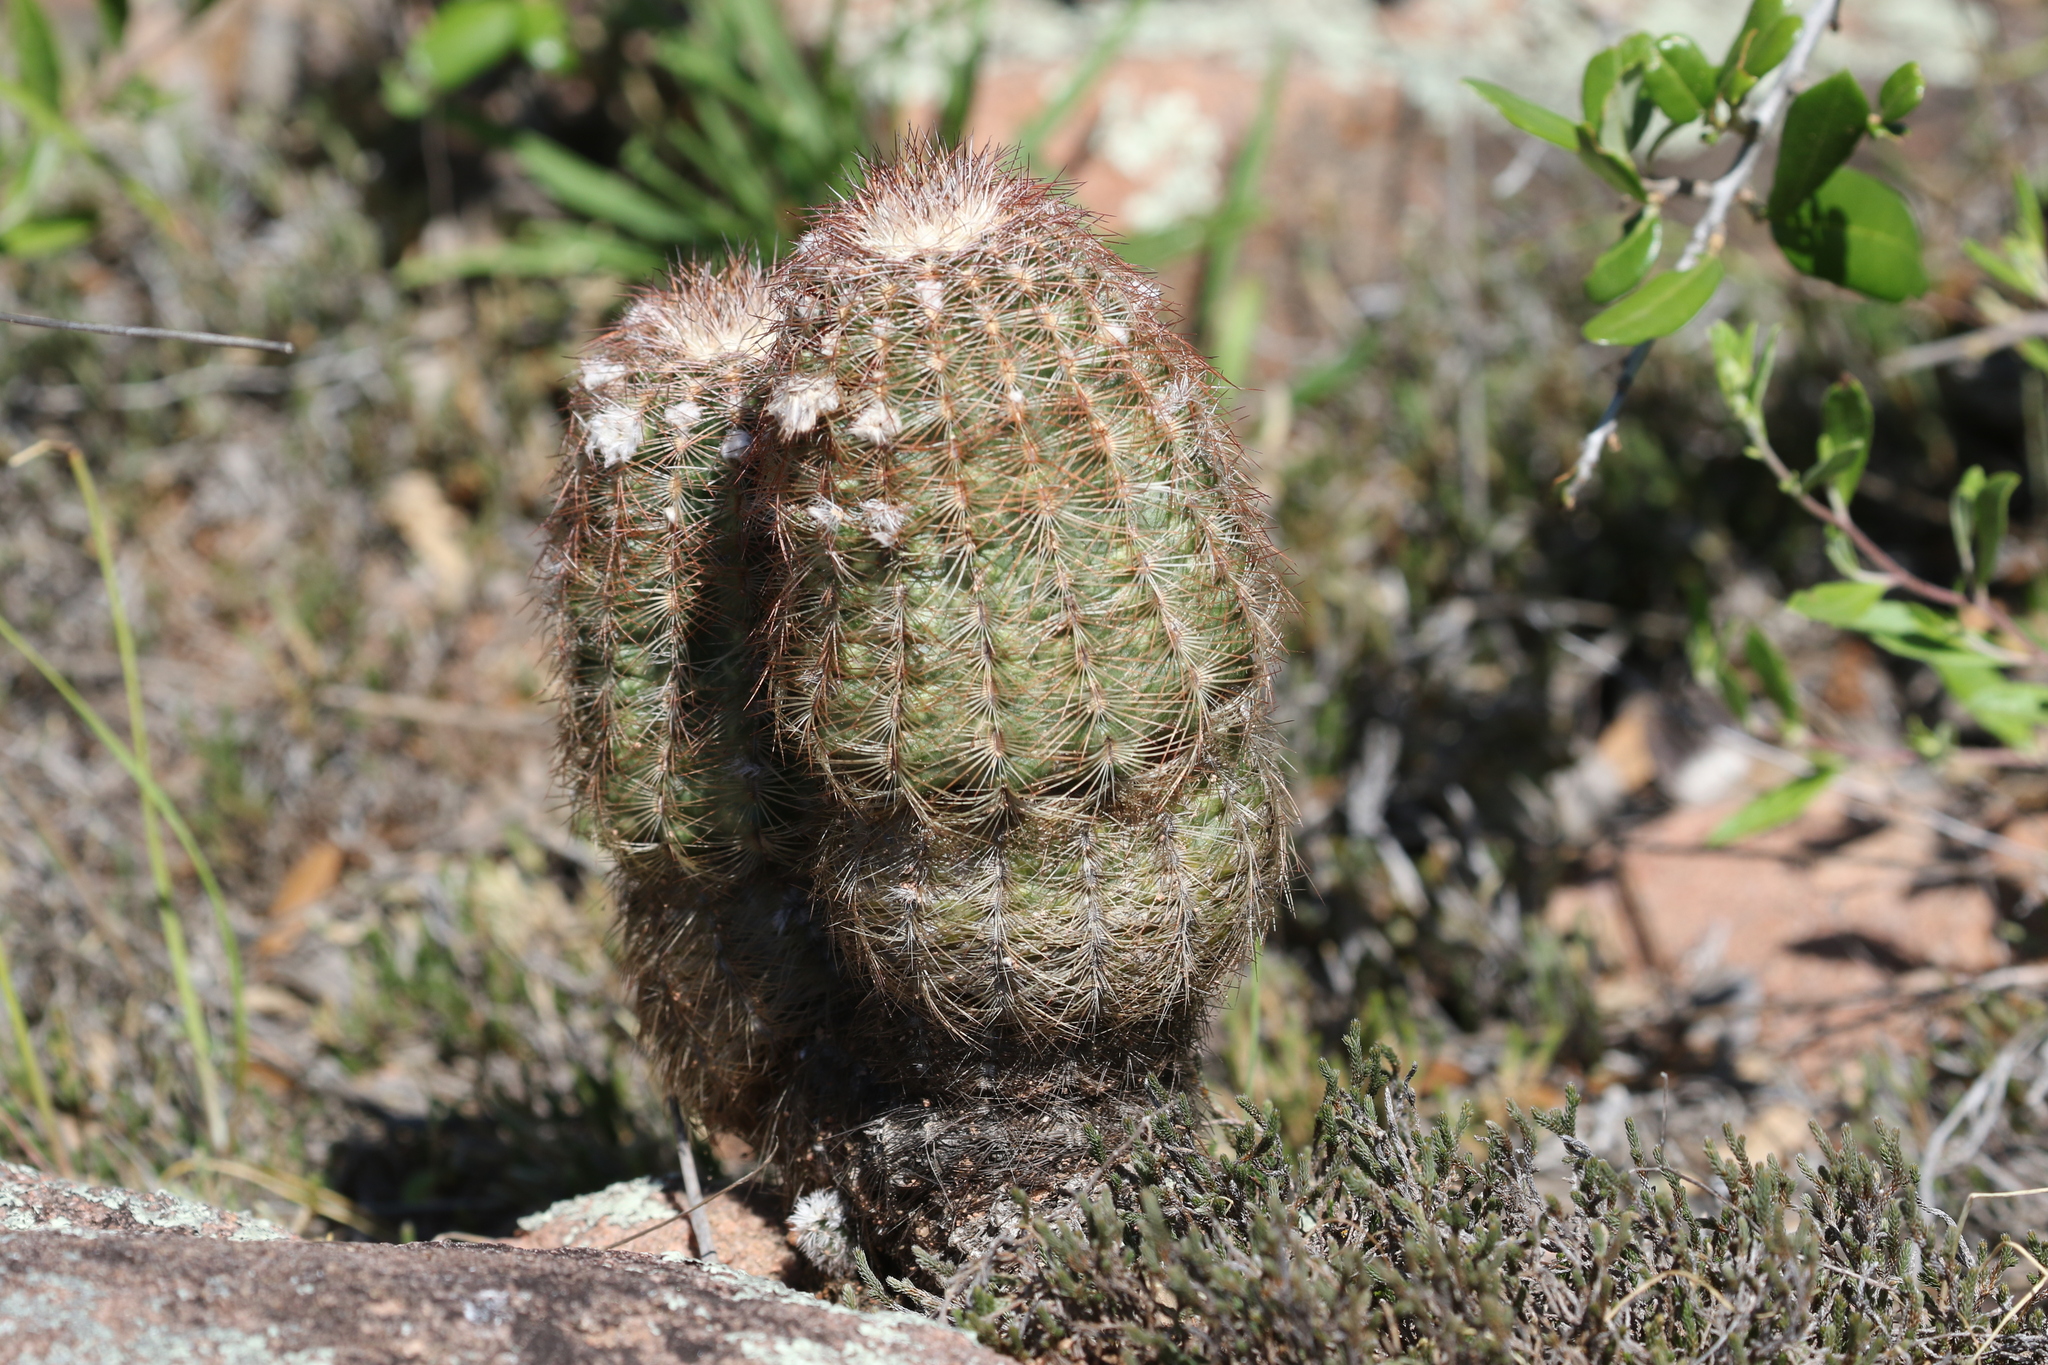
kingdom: Plantae
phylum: Tracheophyta
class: Magnoliopsida
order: Caryophyllales
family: Cactaceae
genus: Echinocereus
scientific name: Echinocereus reichenbachii
